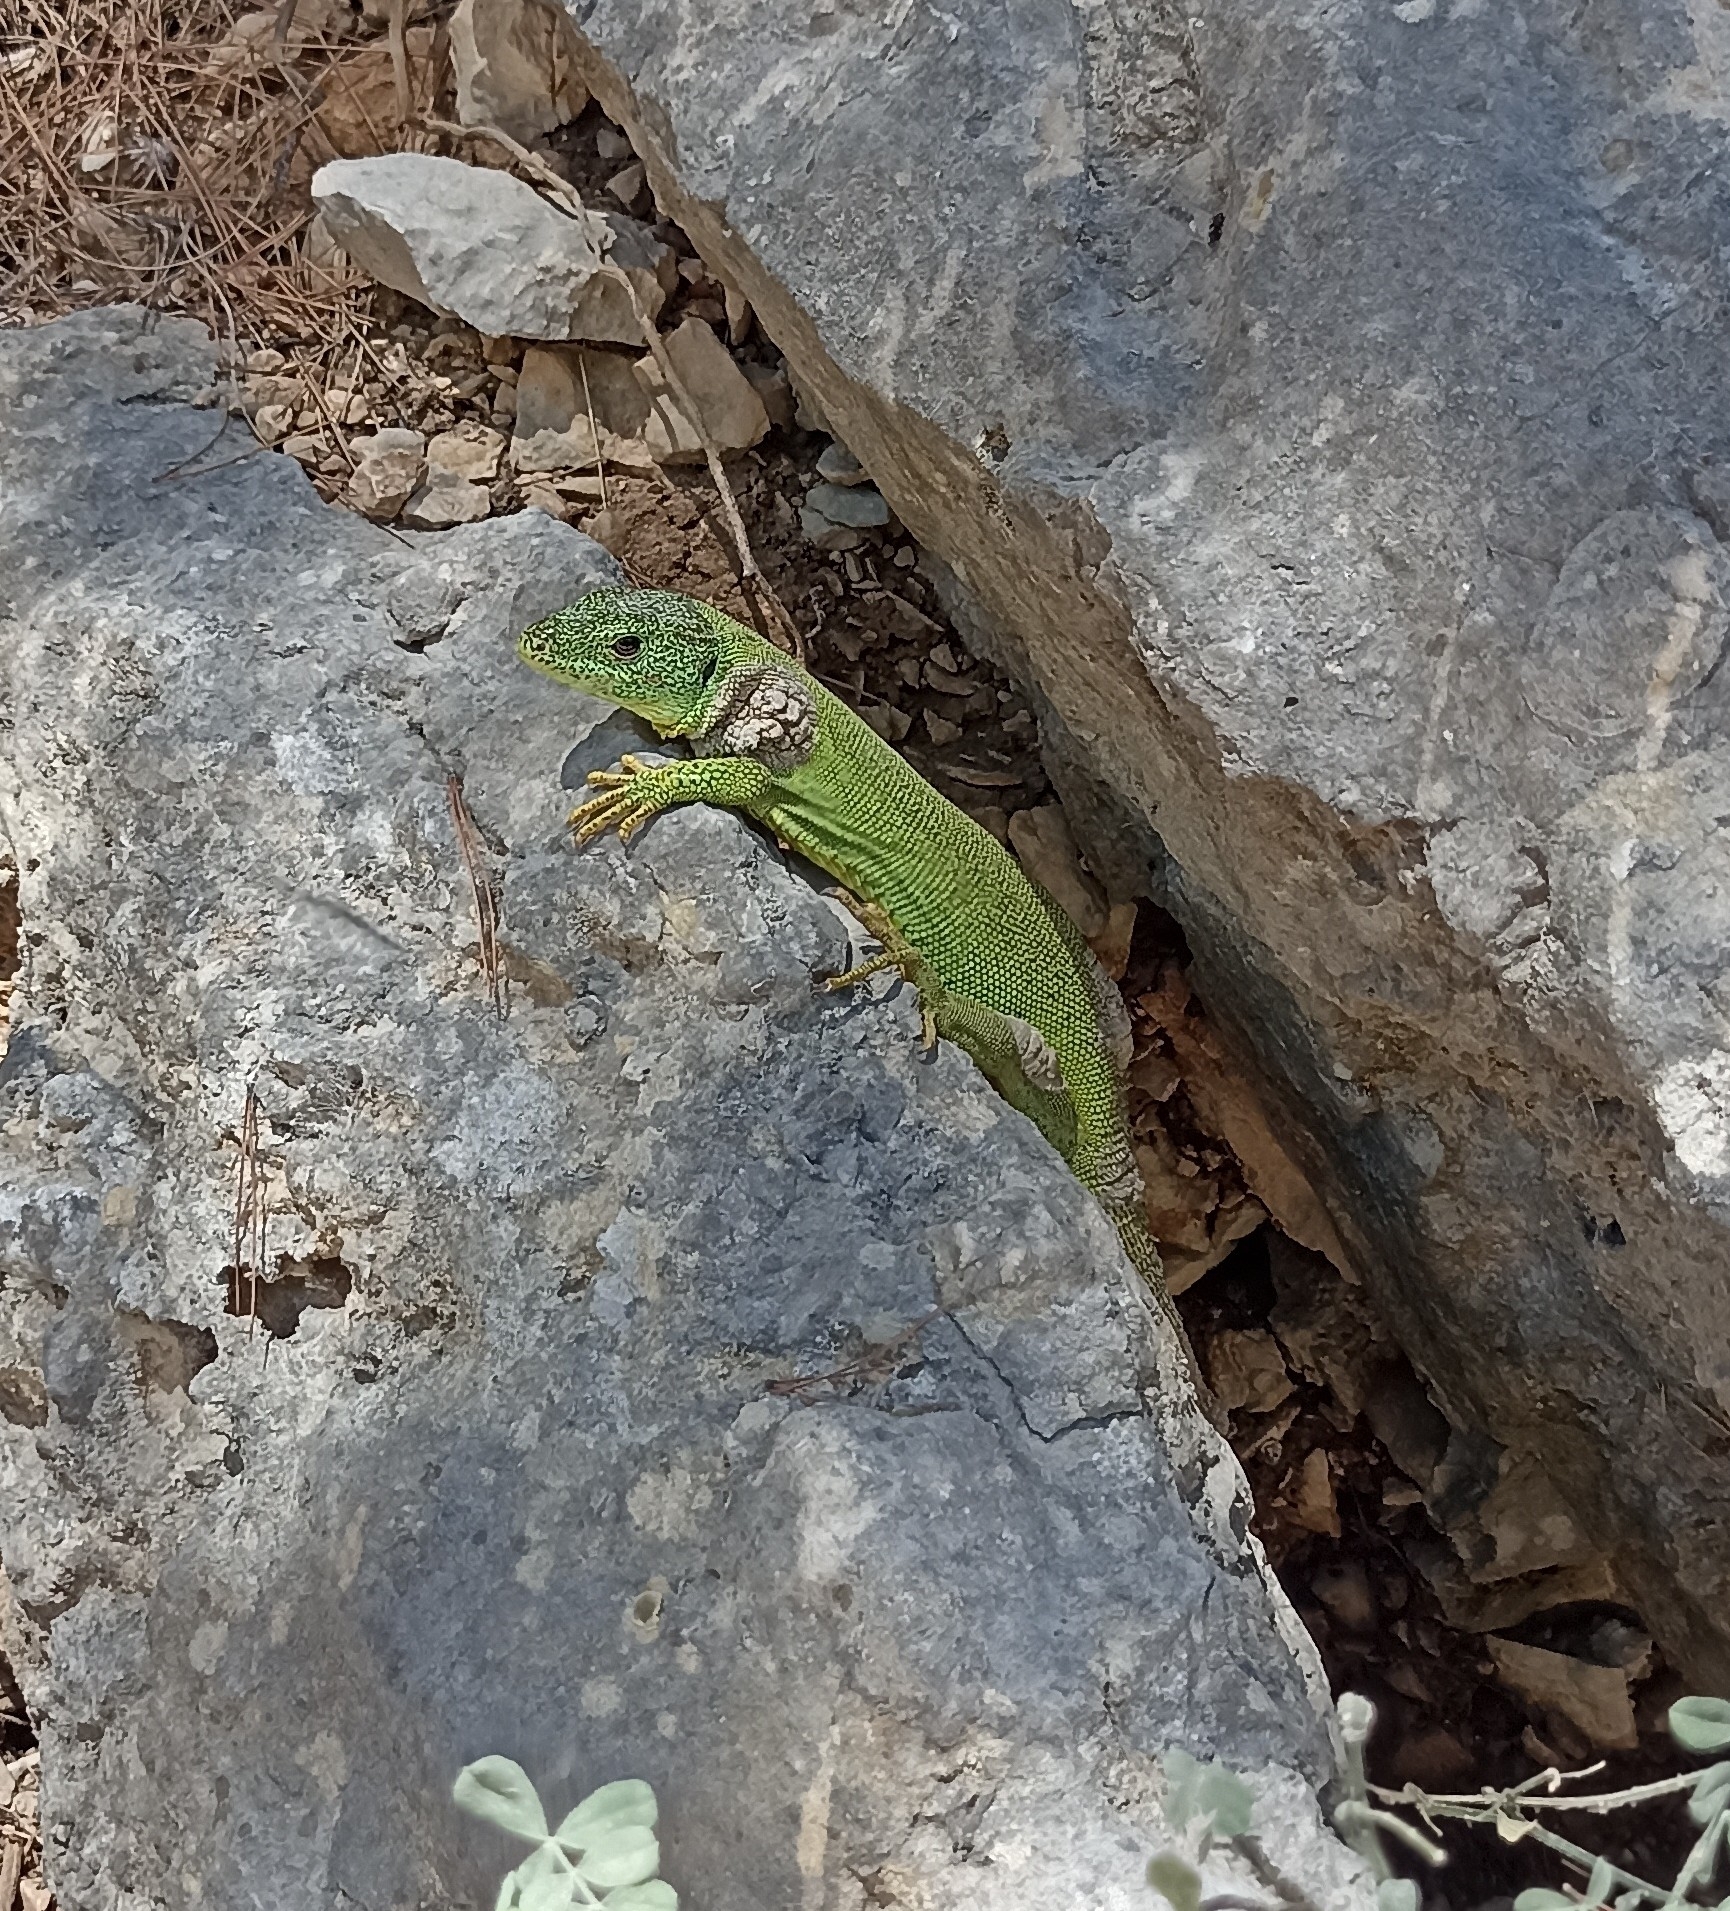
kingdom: Animalia
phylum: Chordata
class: Squamata
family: Lacertidae
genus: Lacerta
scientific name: Lacerta trilineata
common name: Balkan green lizard
